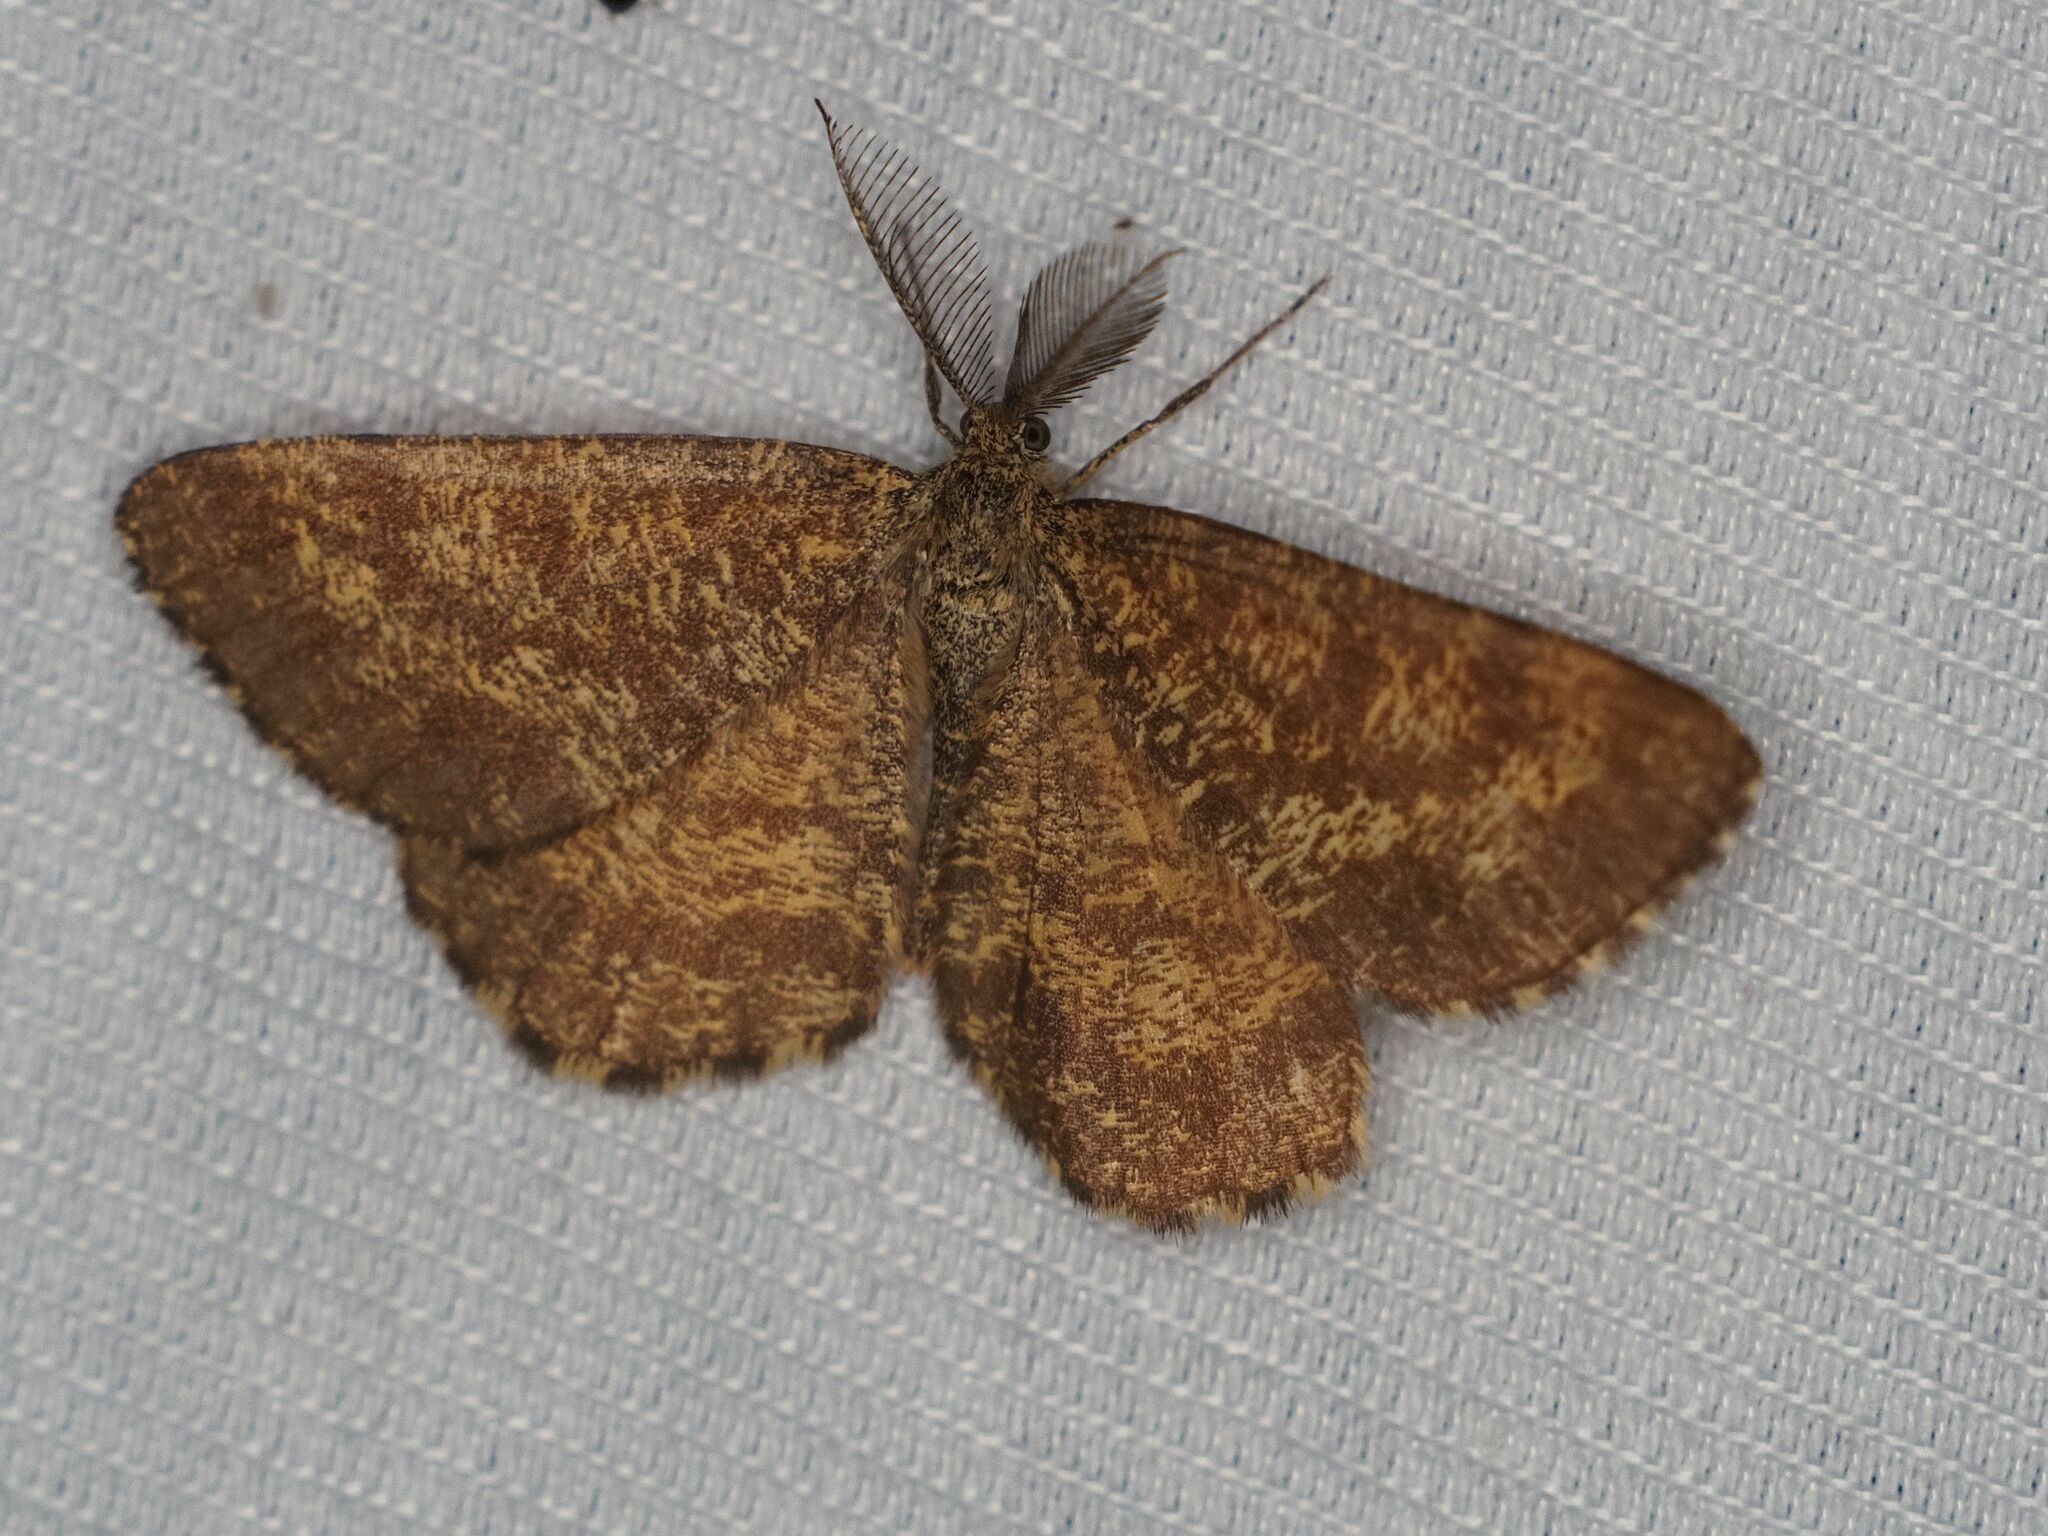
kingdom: Animalia
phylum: Arthropoda
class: Insecta
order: Lepidoptera
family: Geometridae
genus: Ematurga
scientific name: Ematurga atomaria
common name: Common heath
